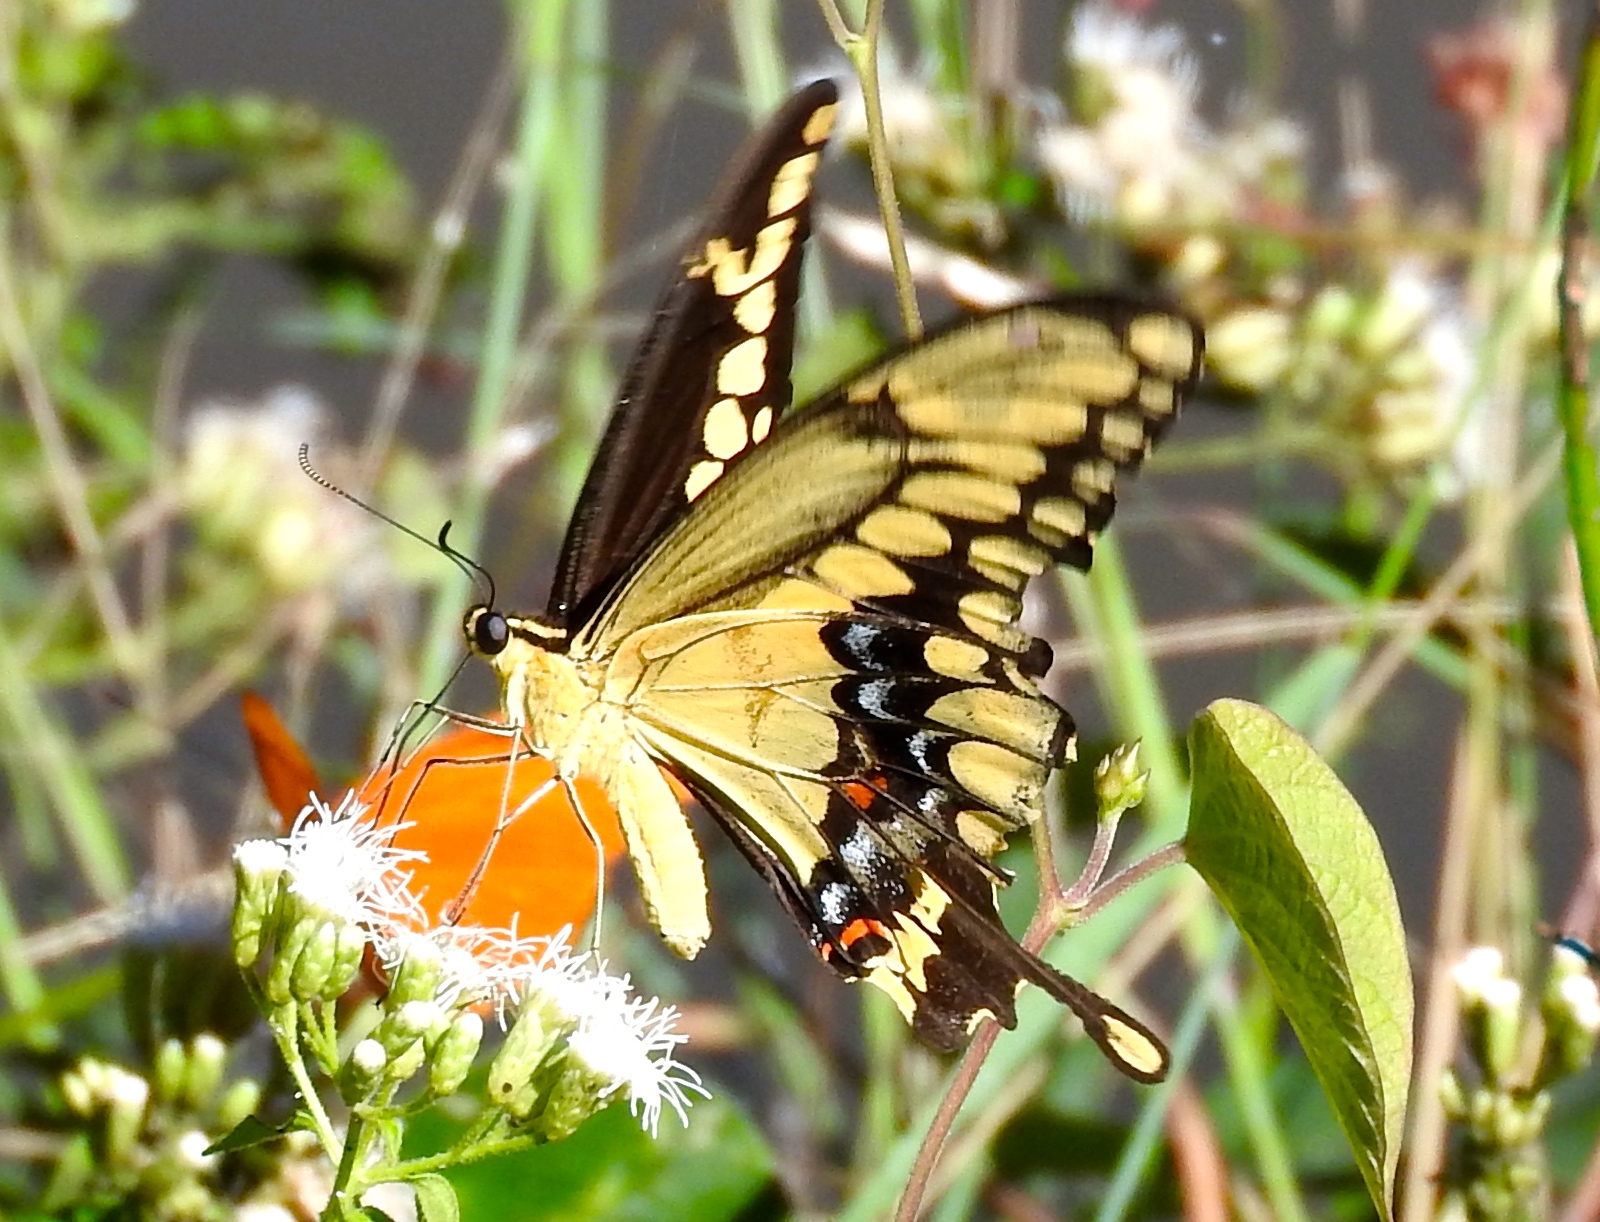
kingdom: Animalia
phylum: Arthropoda
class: Insecta
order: Lepidoptera
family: Papilionidae
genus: Papilio
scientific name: Papilio rumiko
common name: Western giant swallowtail
